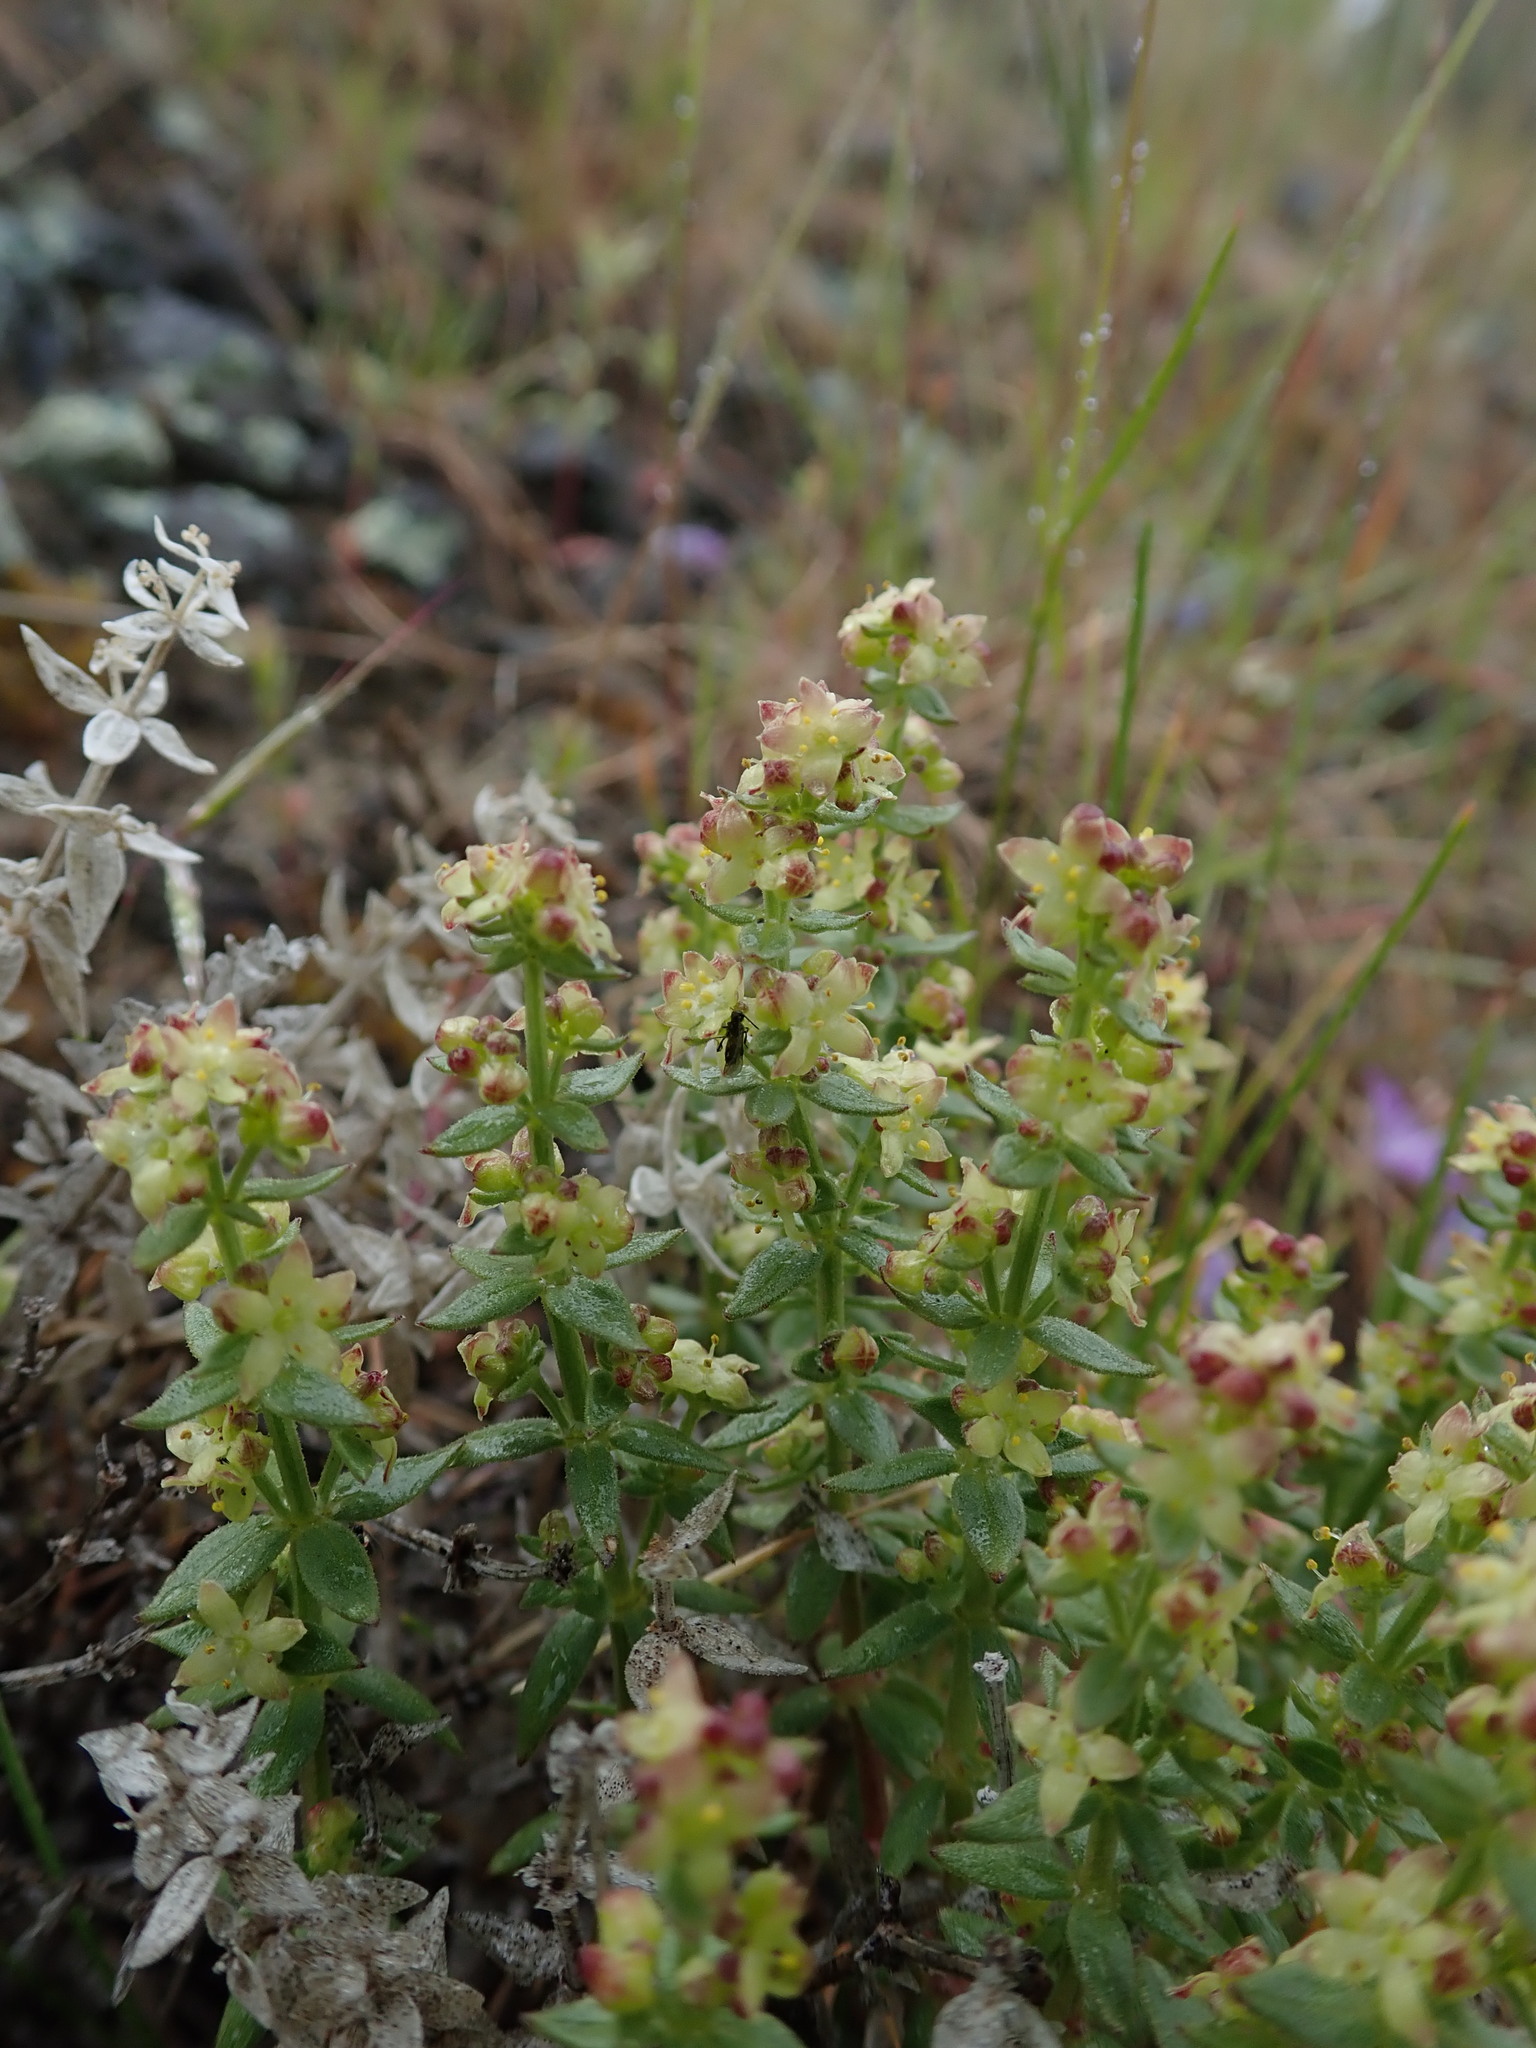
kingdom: Plantae
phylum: Tracheophyta
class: Magnoliopsida
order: Gentianales
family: Rubiaceae
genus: Galium
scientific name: Galium serpenticum
